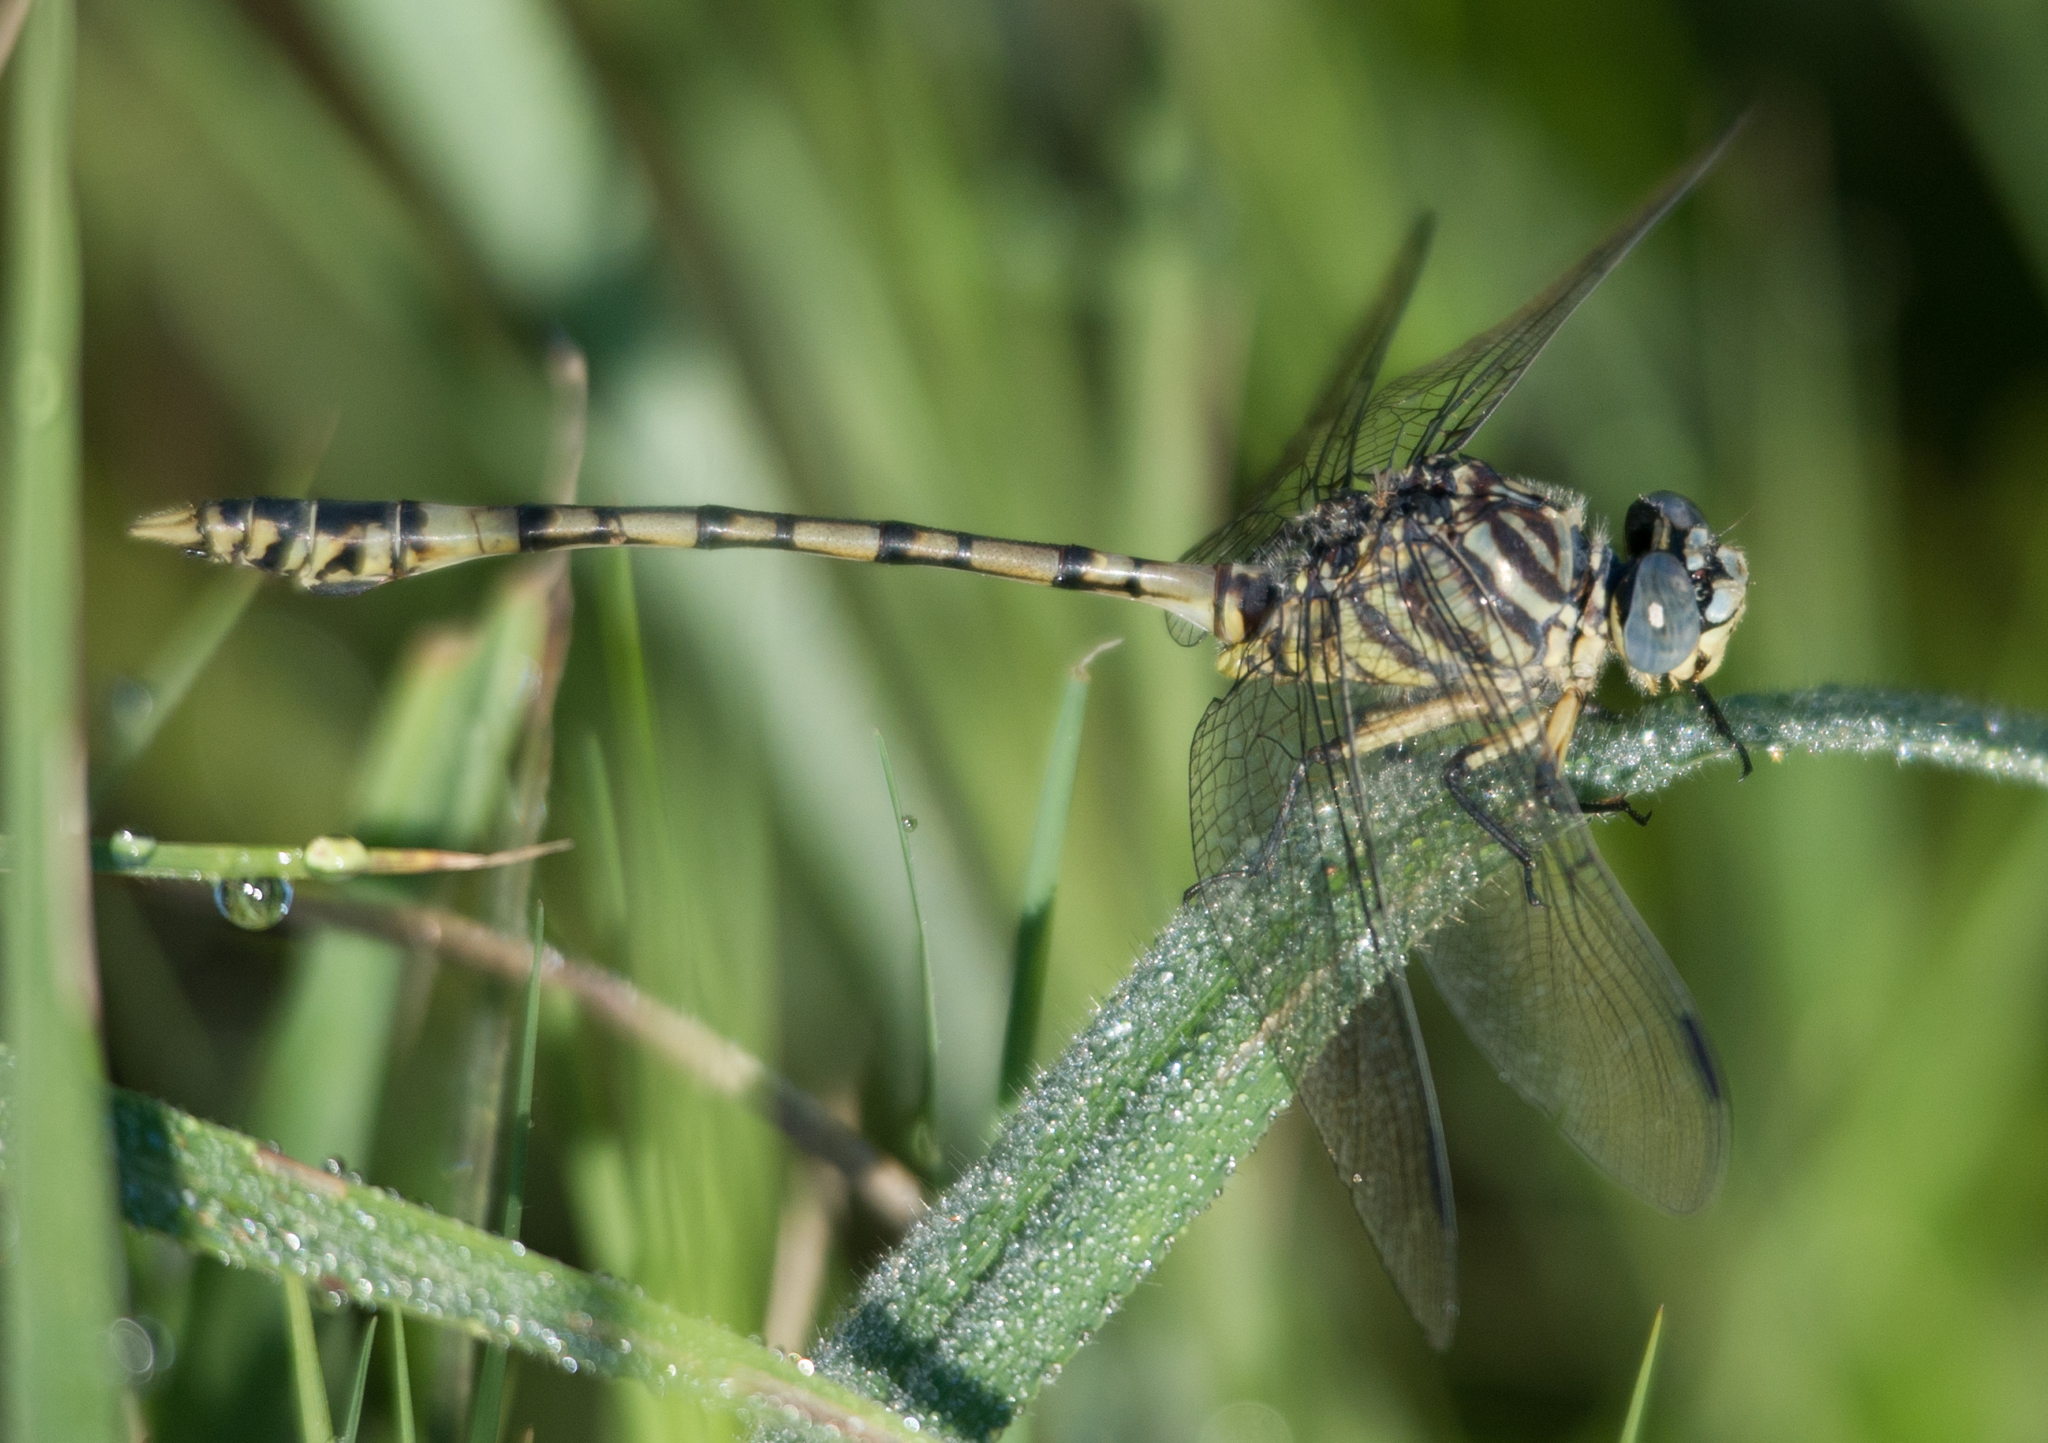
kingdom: Animalia
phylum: Arthropoda
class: Insecta
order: Odonata
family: Gomphidae
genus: Ictinogomphus
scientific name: Ictinogomphus dundoensis
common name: Swamp tigertail
